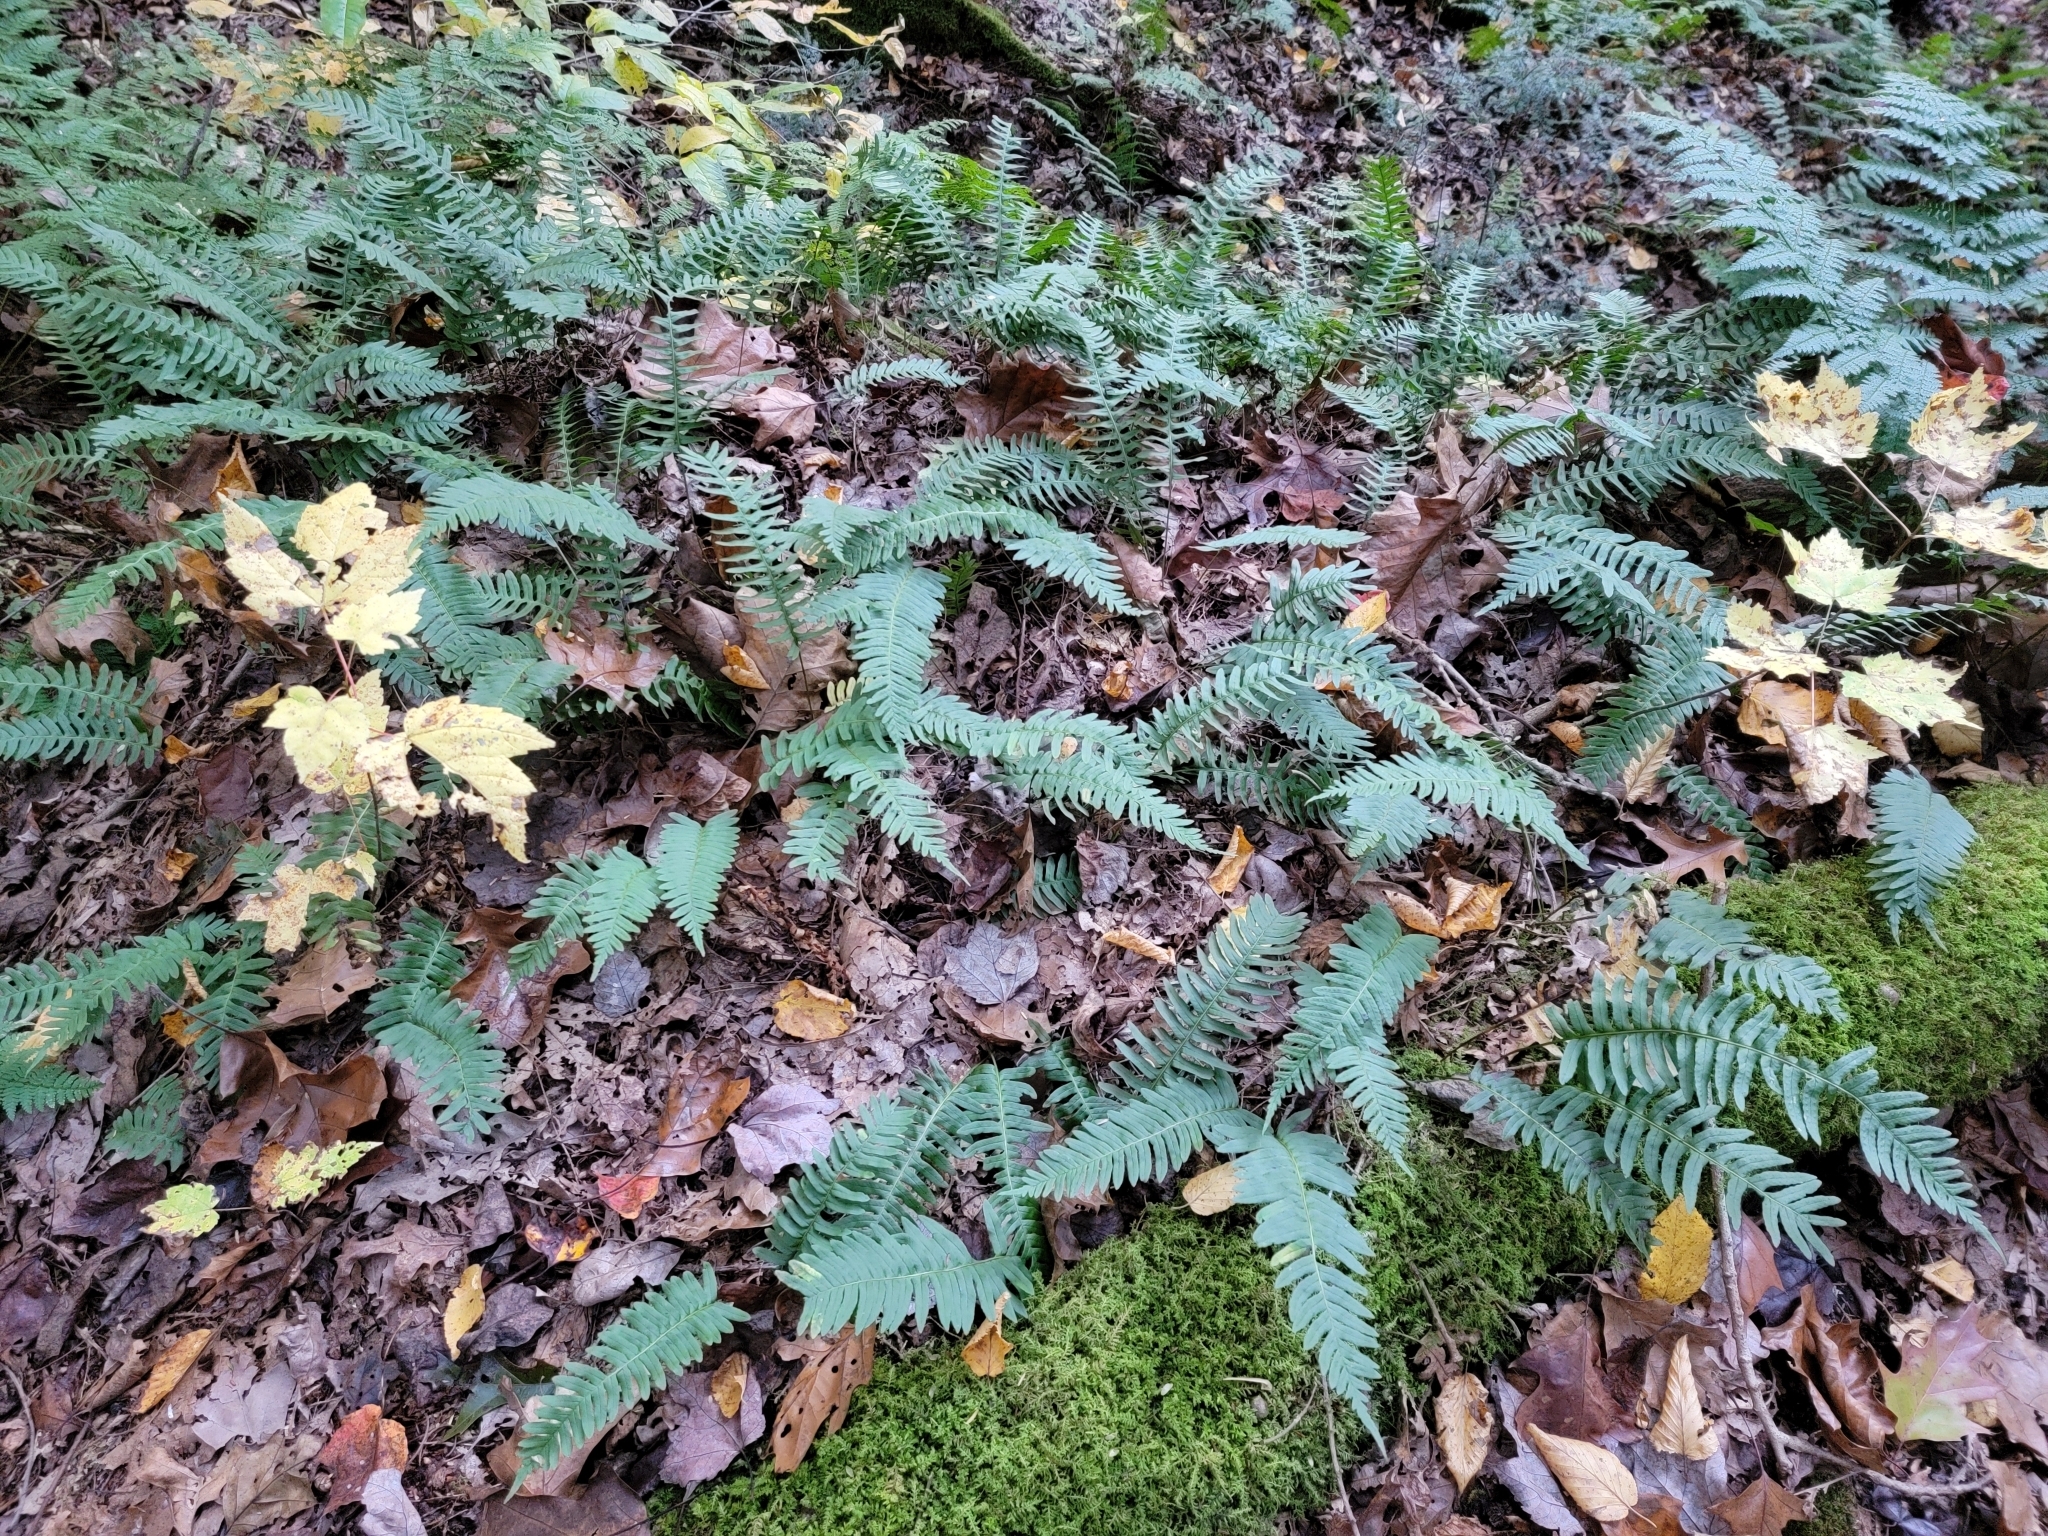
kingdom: Plantae
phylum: Tracheophyta
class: Polypodiopsida
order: Polypodiales
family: Polypodiaceae
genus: Polypodium
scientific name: Polypodium virginianum
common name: American wall fern
